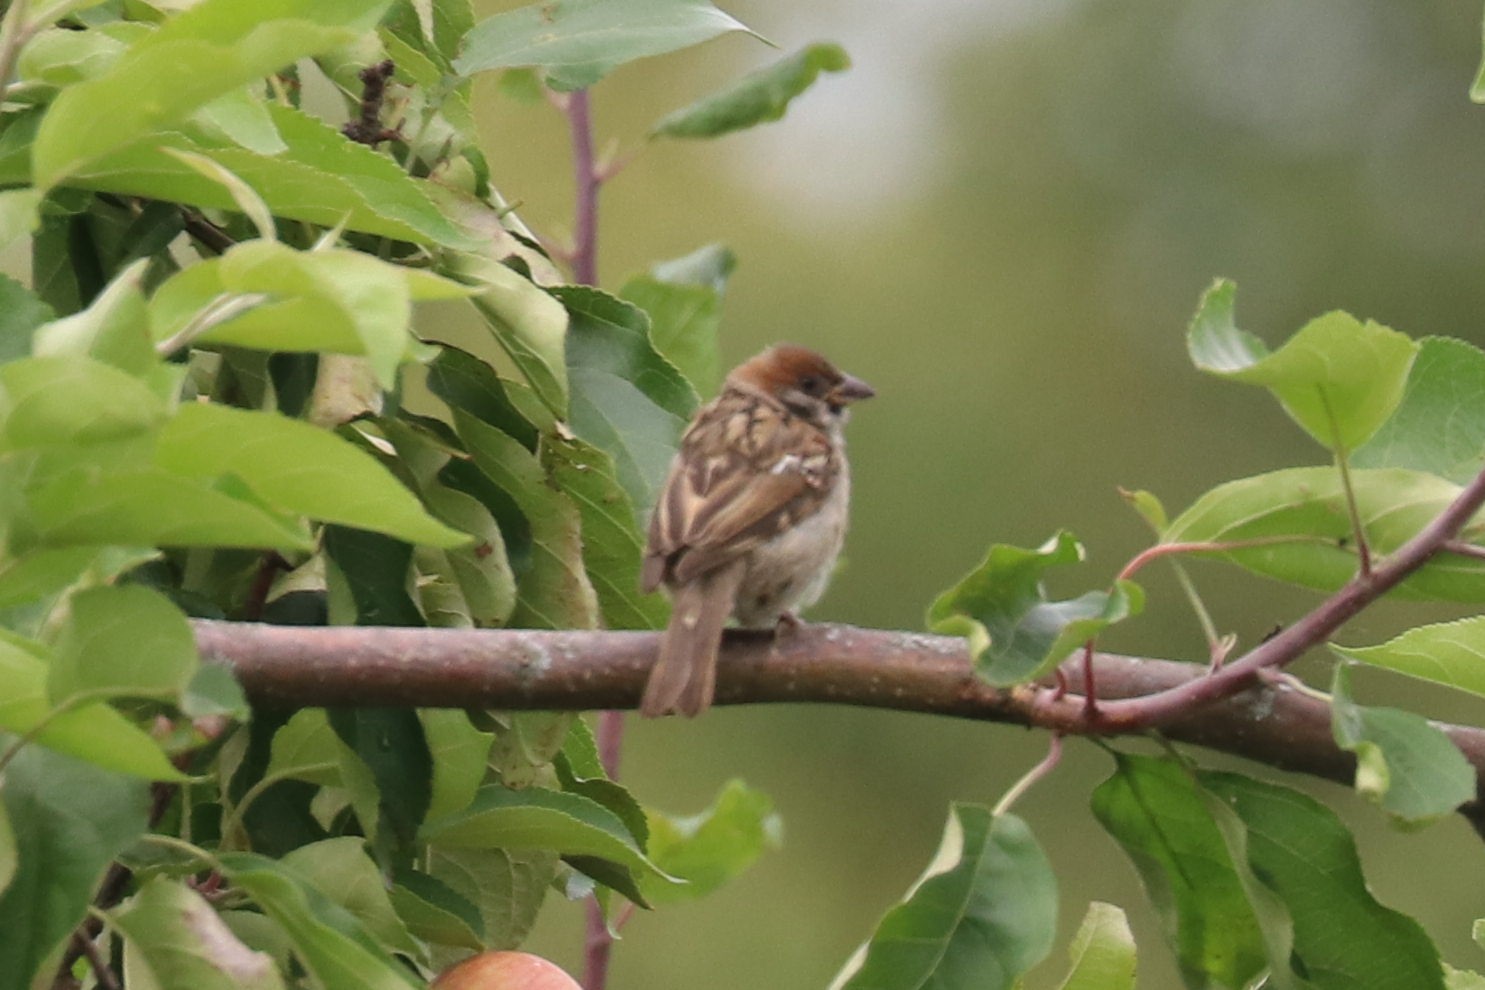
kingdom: Animalia
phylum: Chordata
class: Aves
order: Passeriformes
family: Passeridae
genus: Passer
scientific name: Passer montanus
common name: Eurasian tree sparrow
